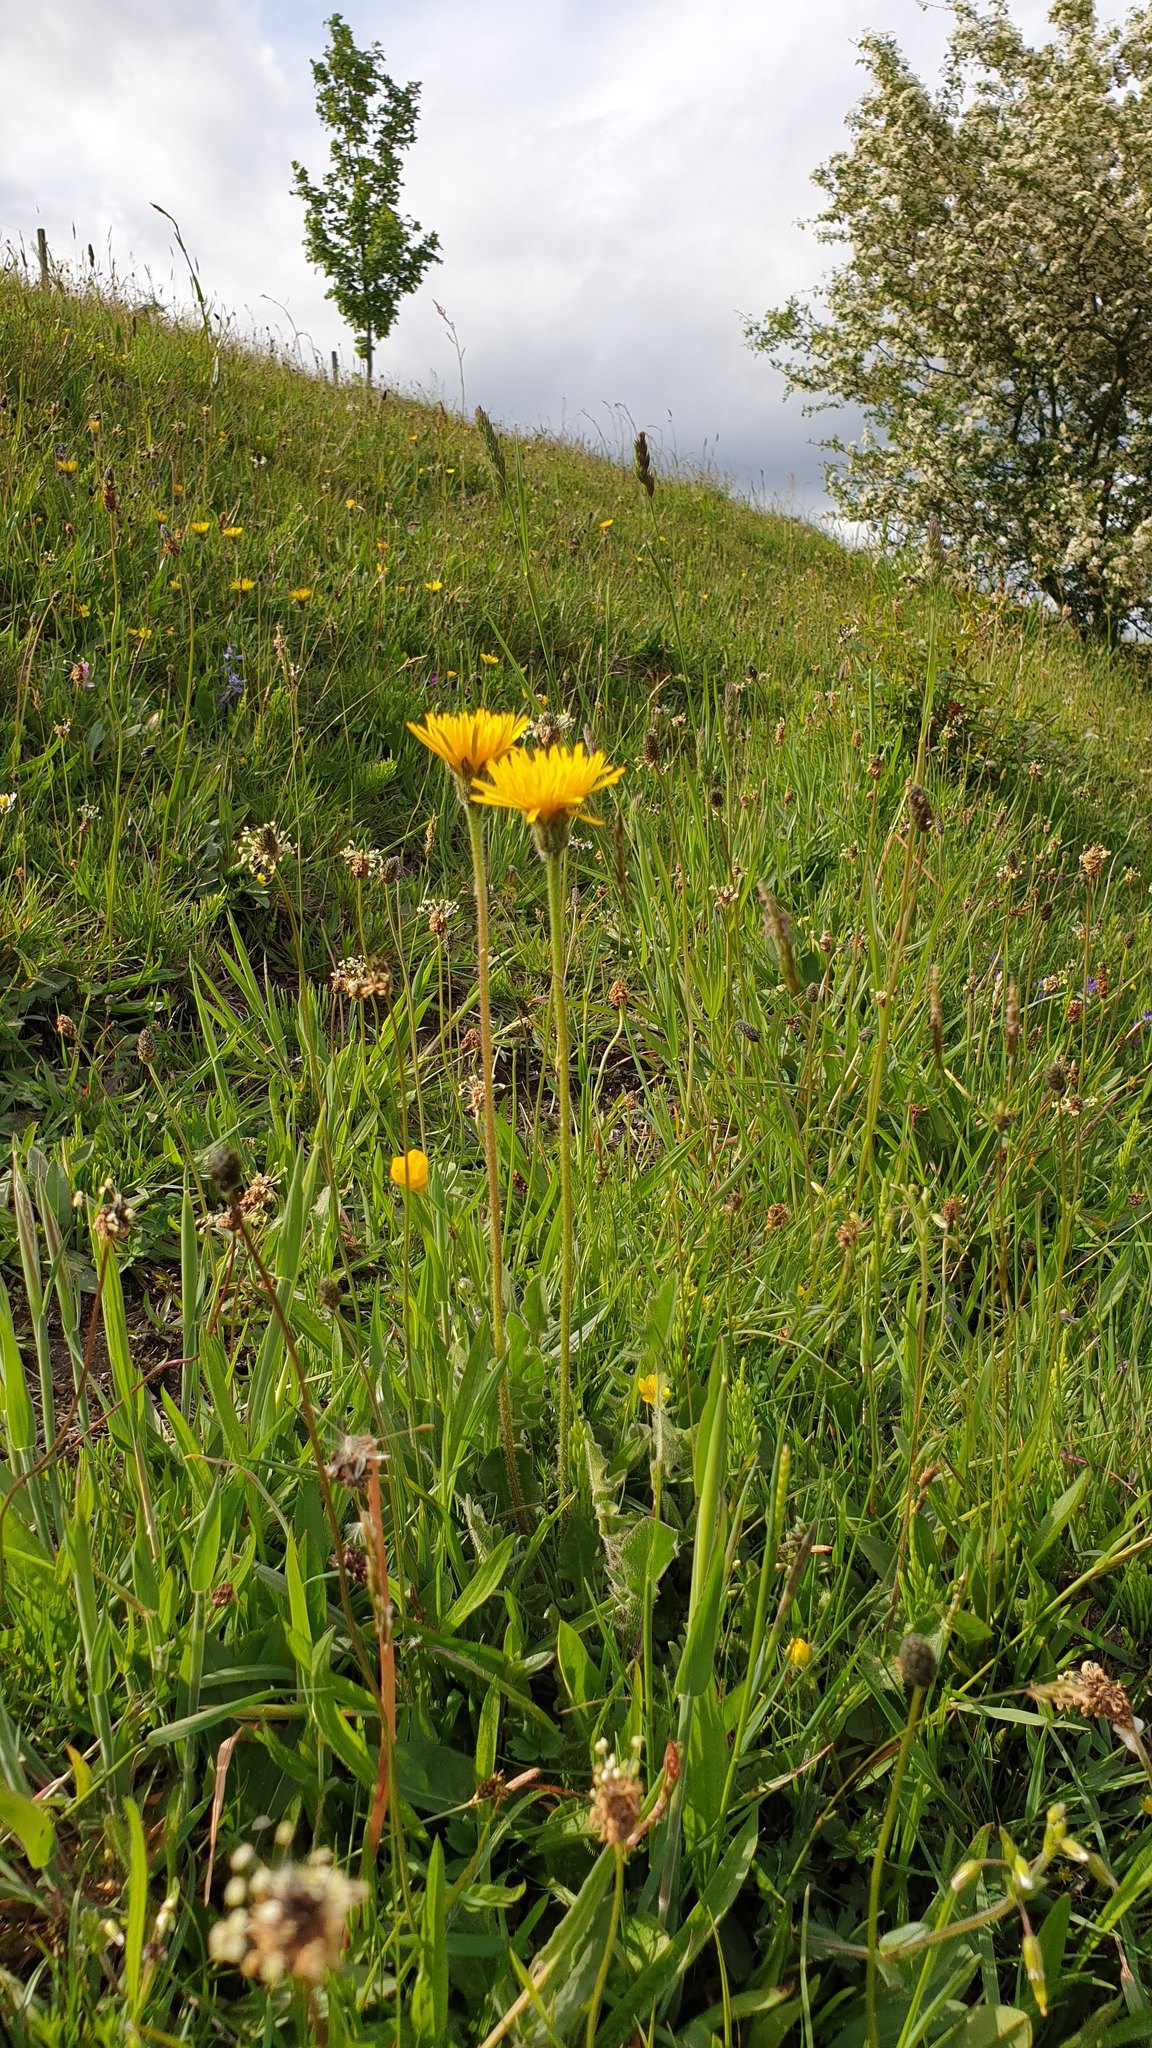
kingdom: Plantae
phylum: Tracheophyta
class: Magnoliopsida
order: Asterales
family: Asteraceae
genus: Leontodon
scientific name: Leontodon hispidus
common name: Rough hawkbit
